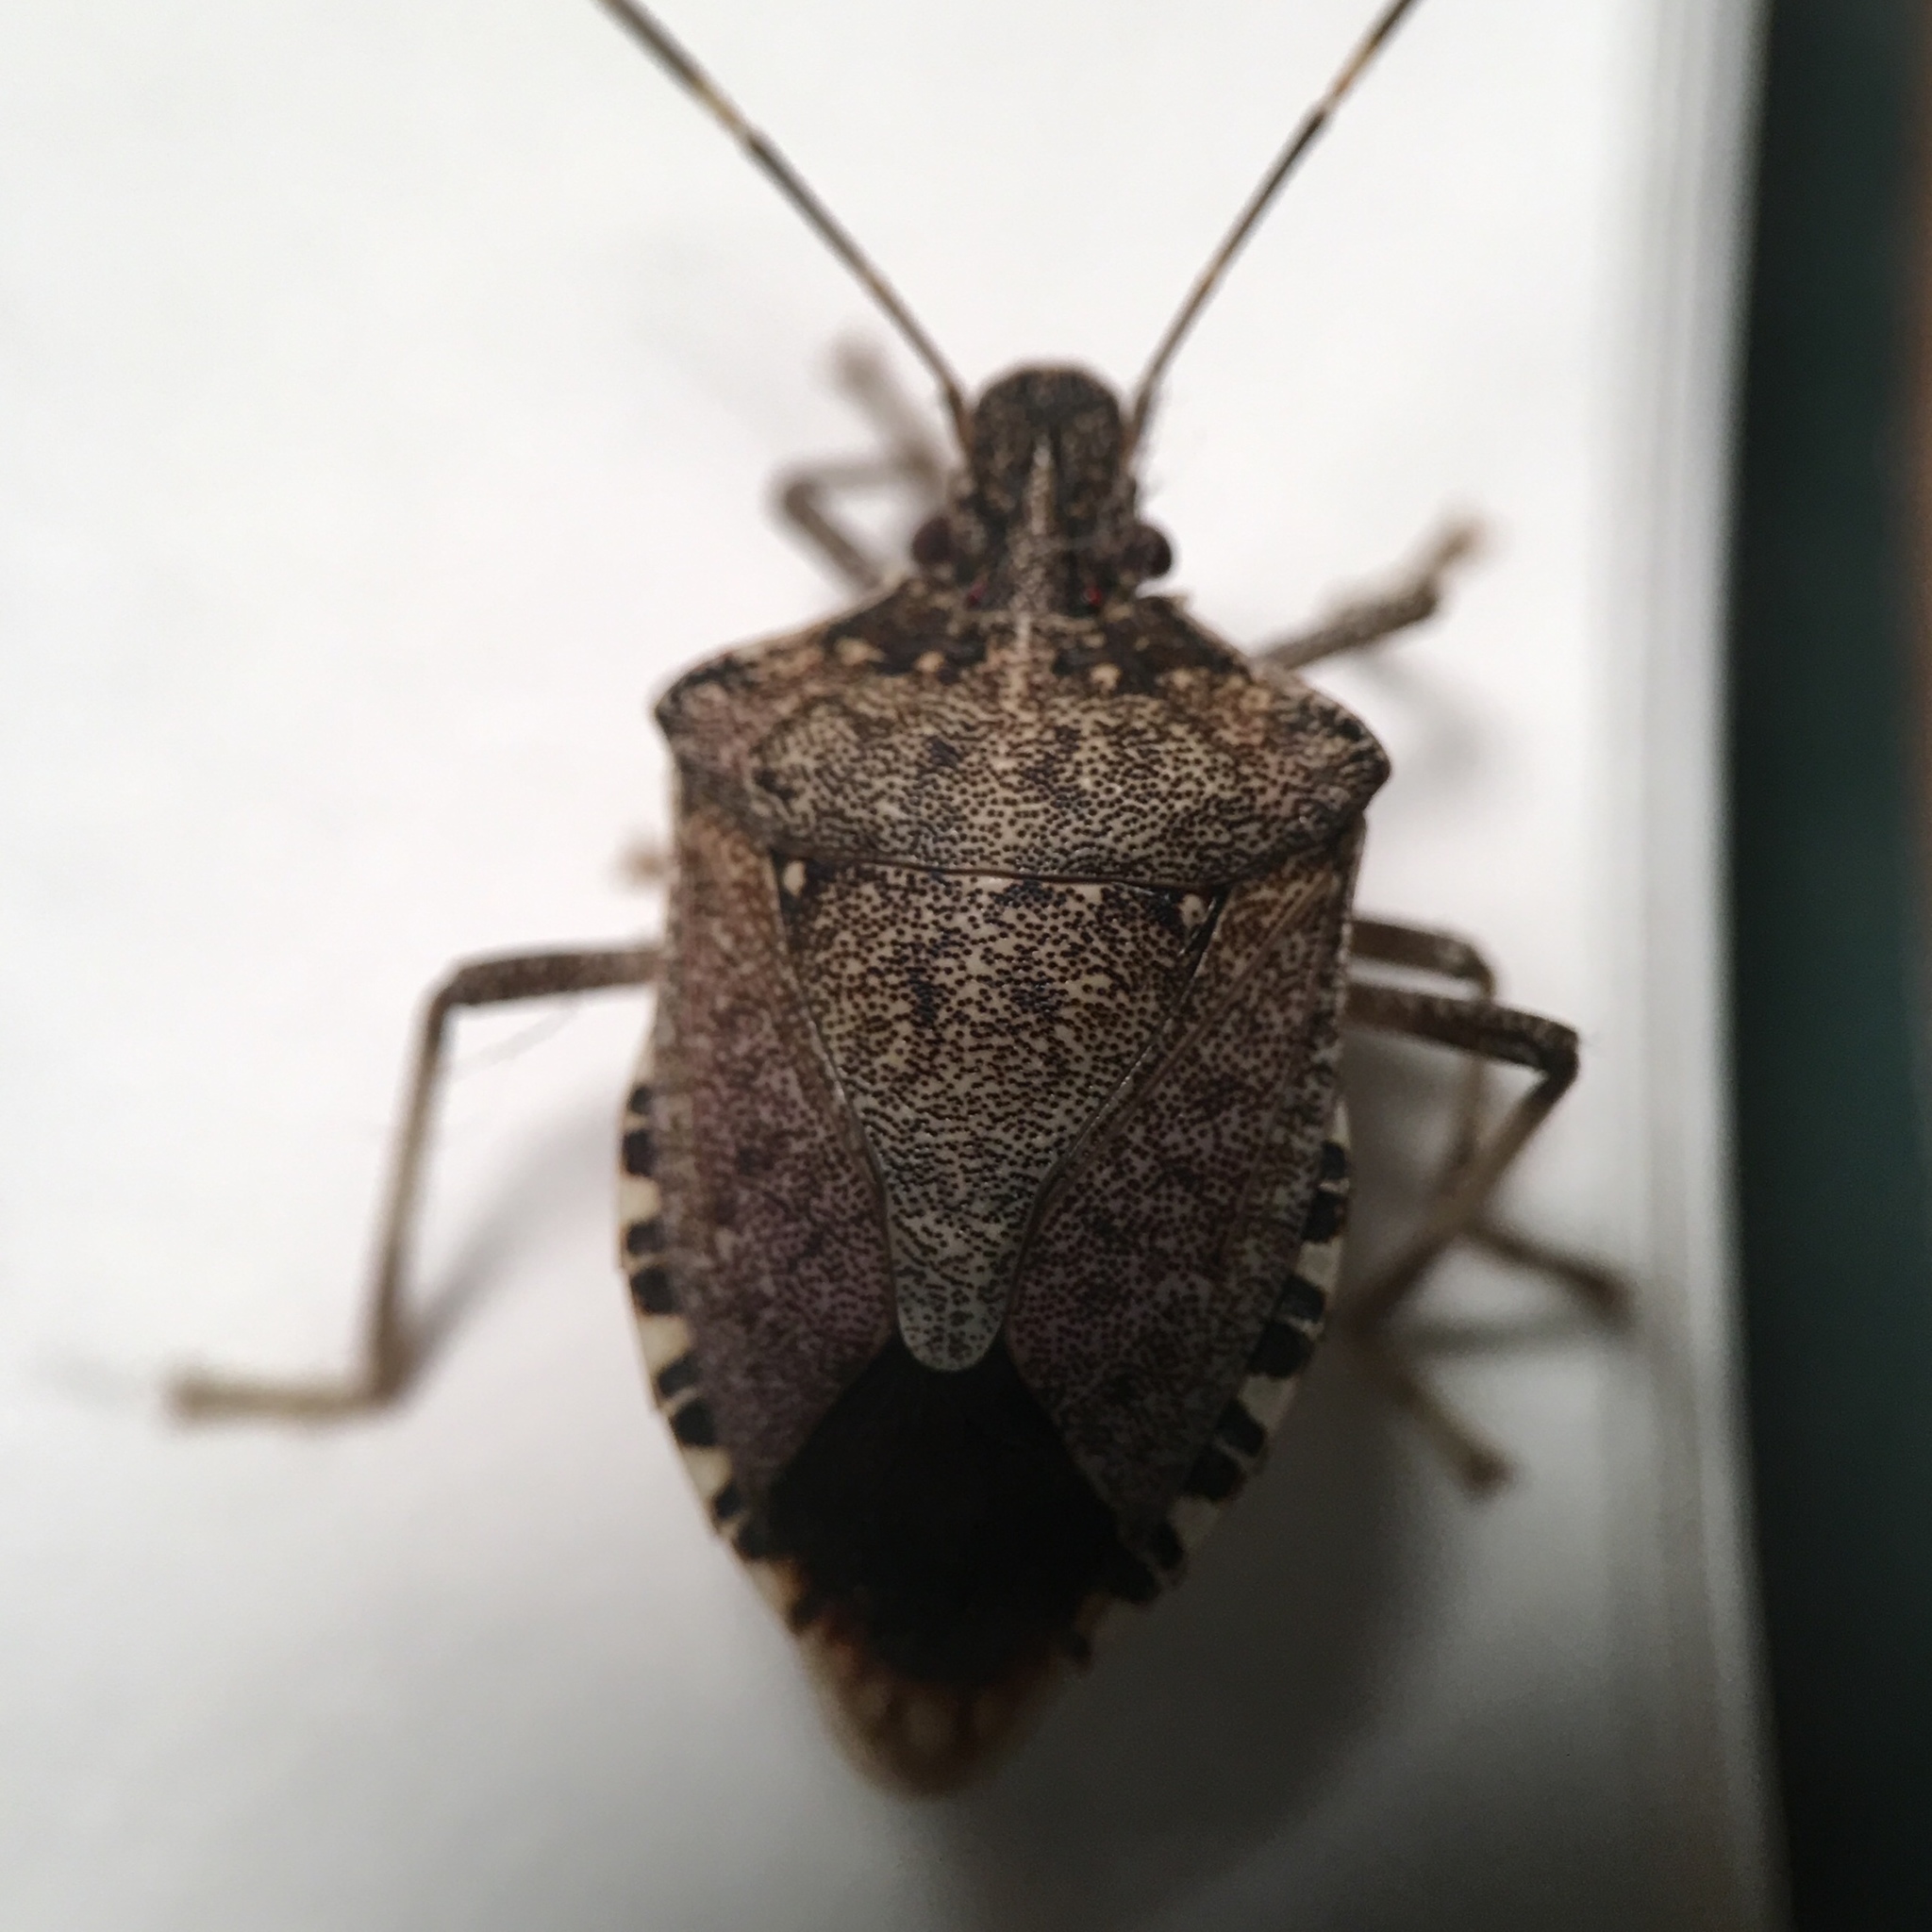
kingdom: Animalia
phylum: Arthropoda
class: Insecta
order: Hemiptera
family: Pentatomidae
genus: Halyomorpha
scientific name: Halyomorpha halys
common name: Brown marmorated stink bug
